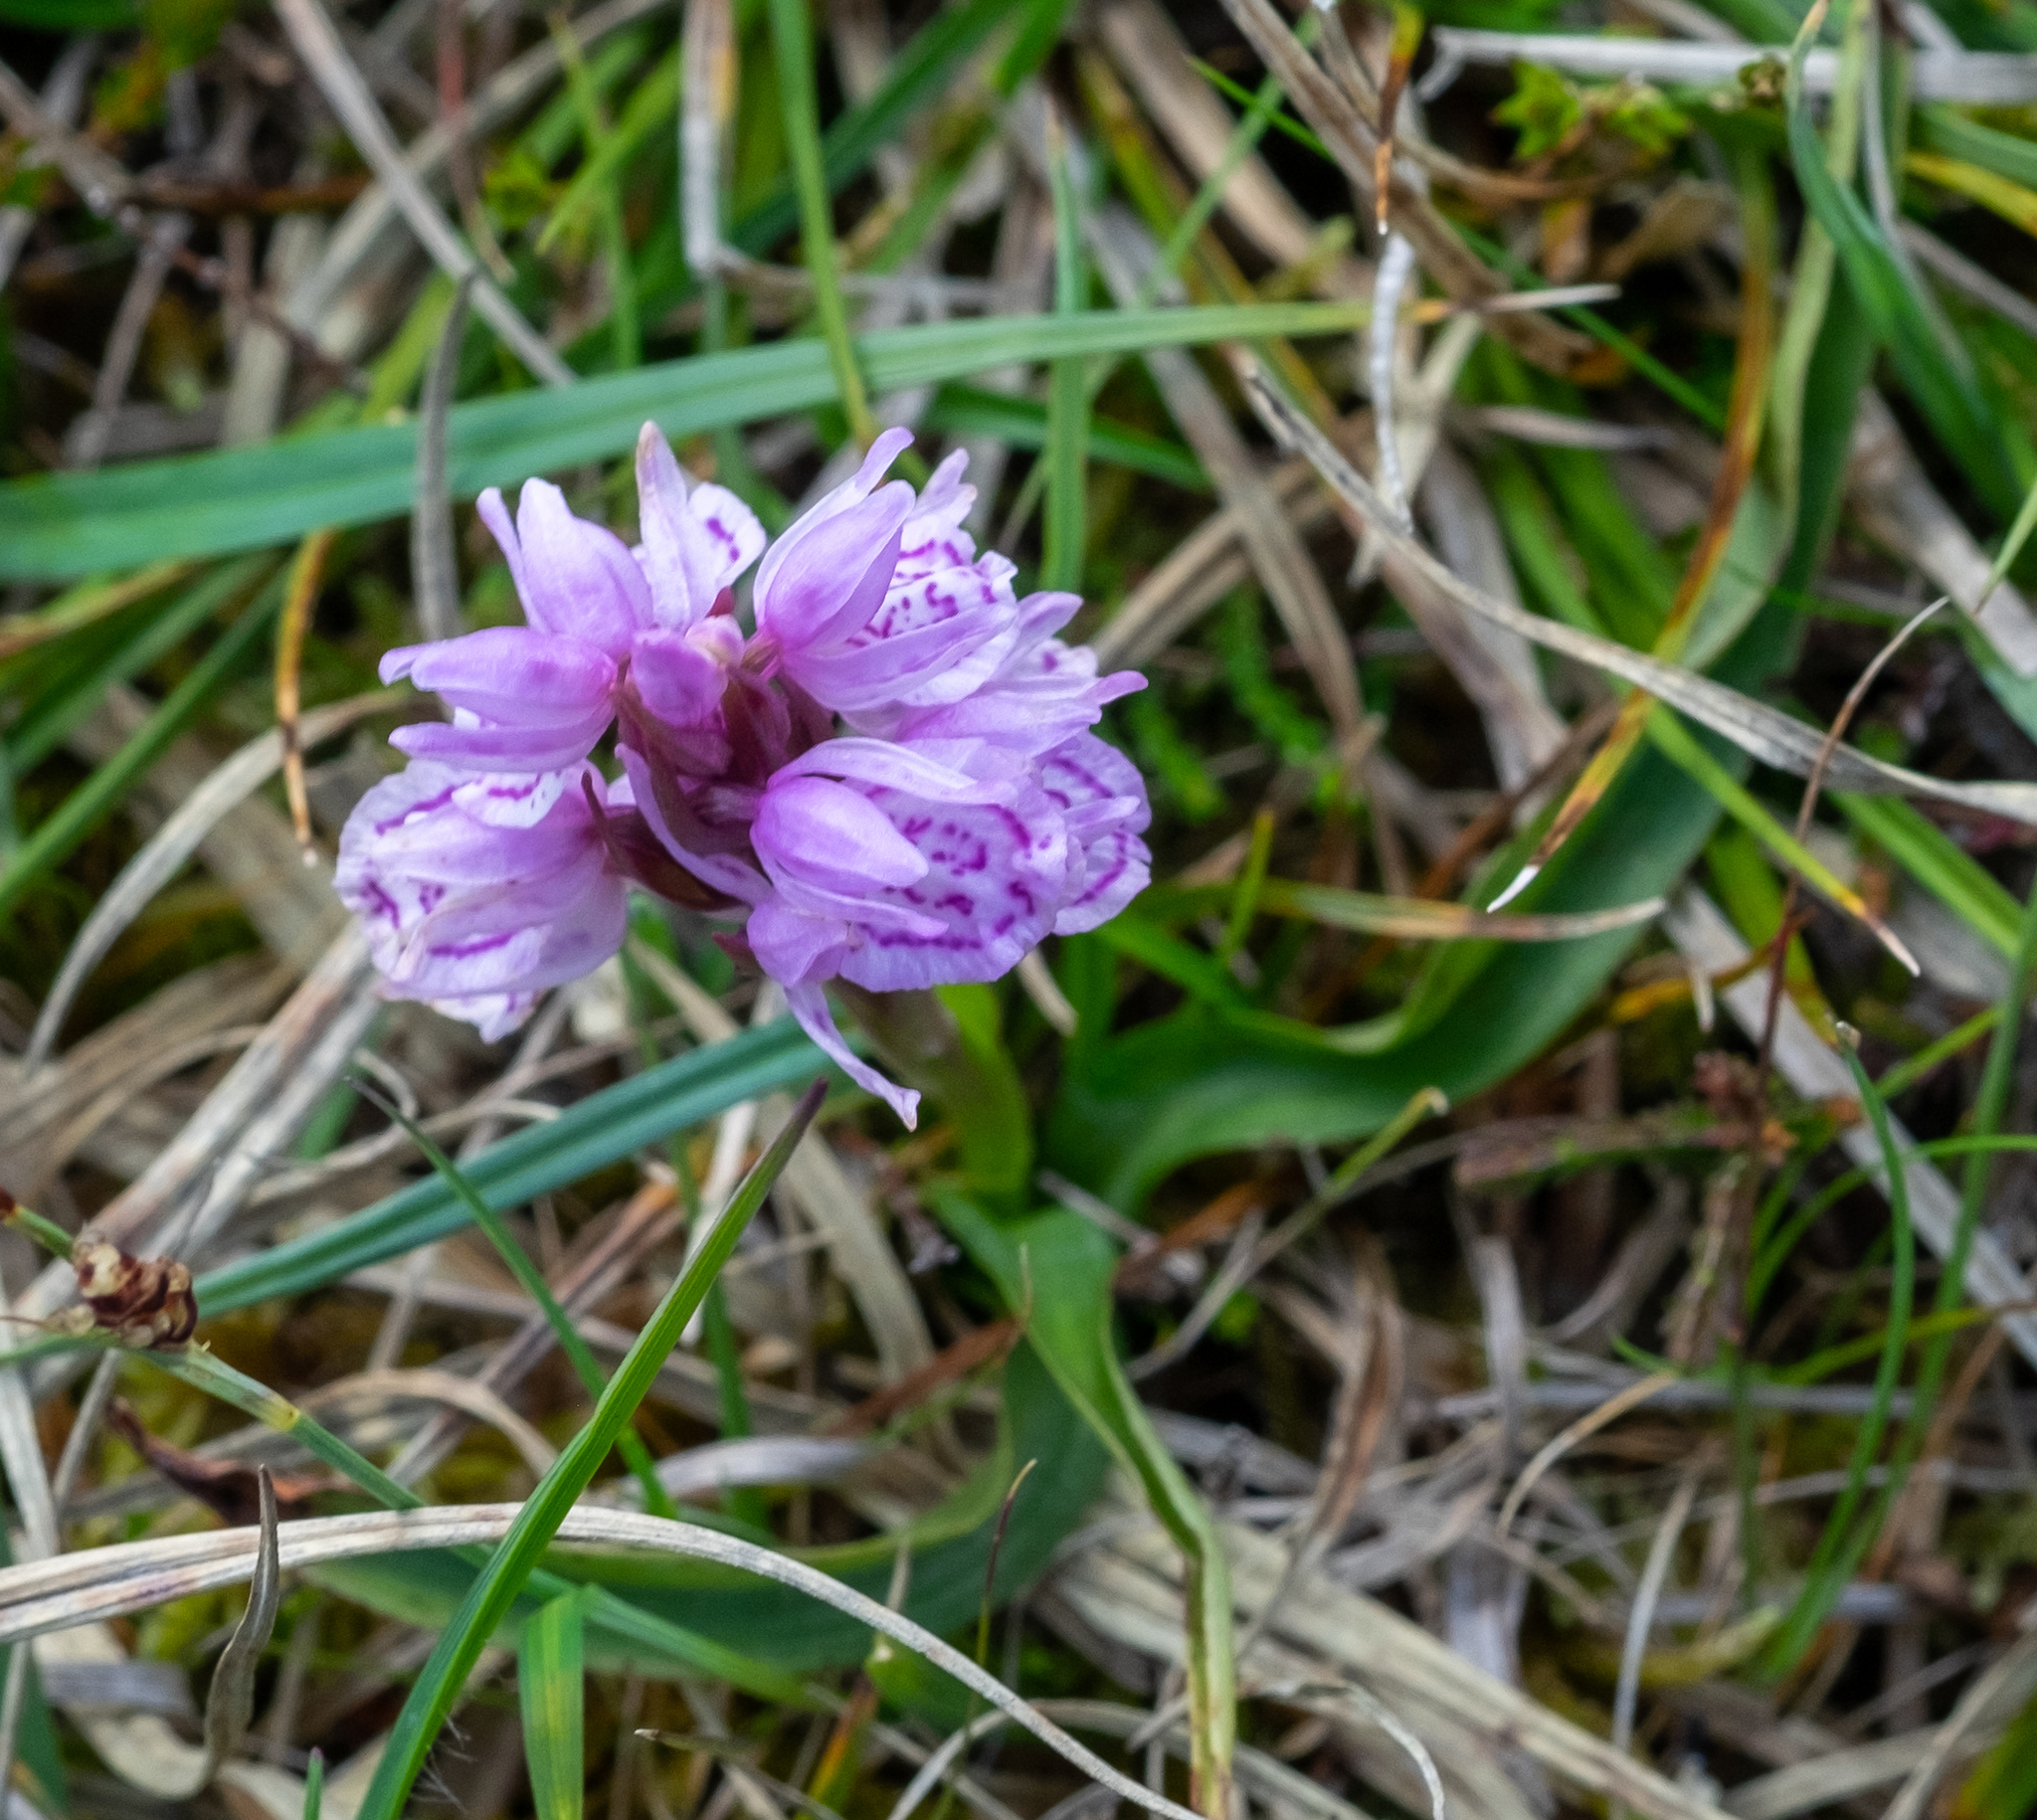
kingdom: Plantae
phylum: Tracheophyta
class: Liliopsida
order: Asparagales
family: Orchidaceae
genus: Dactylorhiza
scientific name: Dactylorhiza maculata
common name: Heath spotted-orchid
